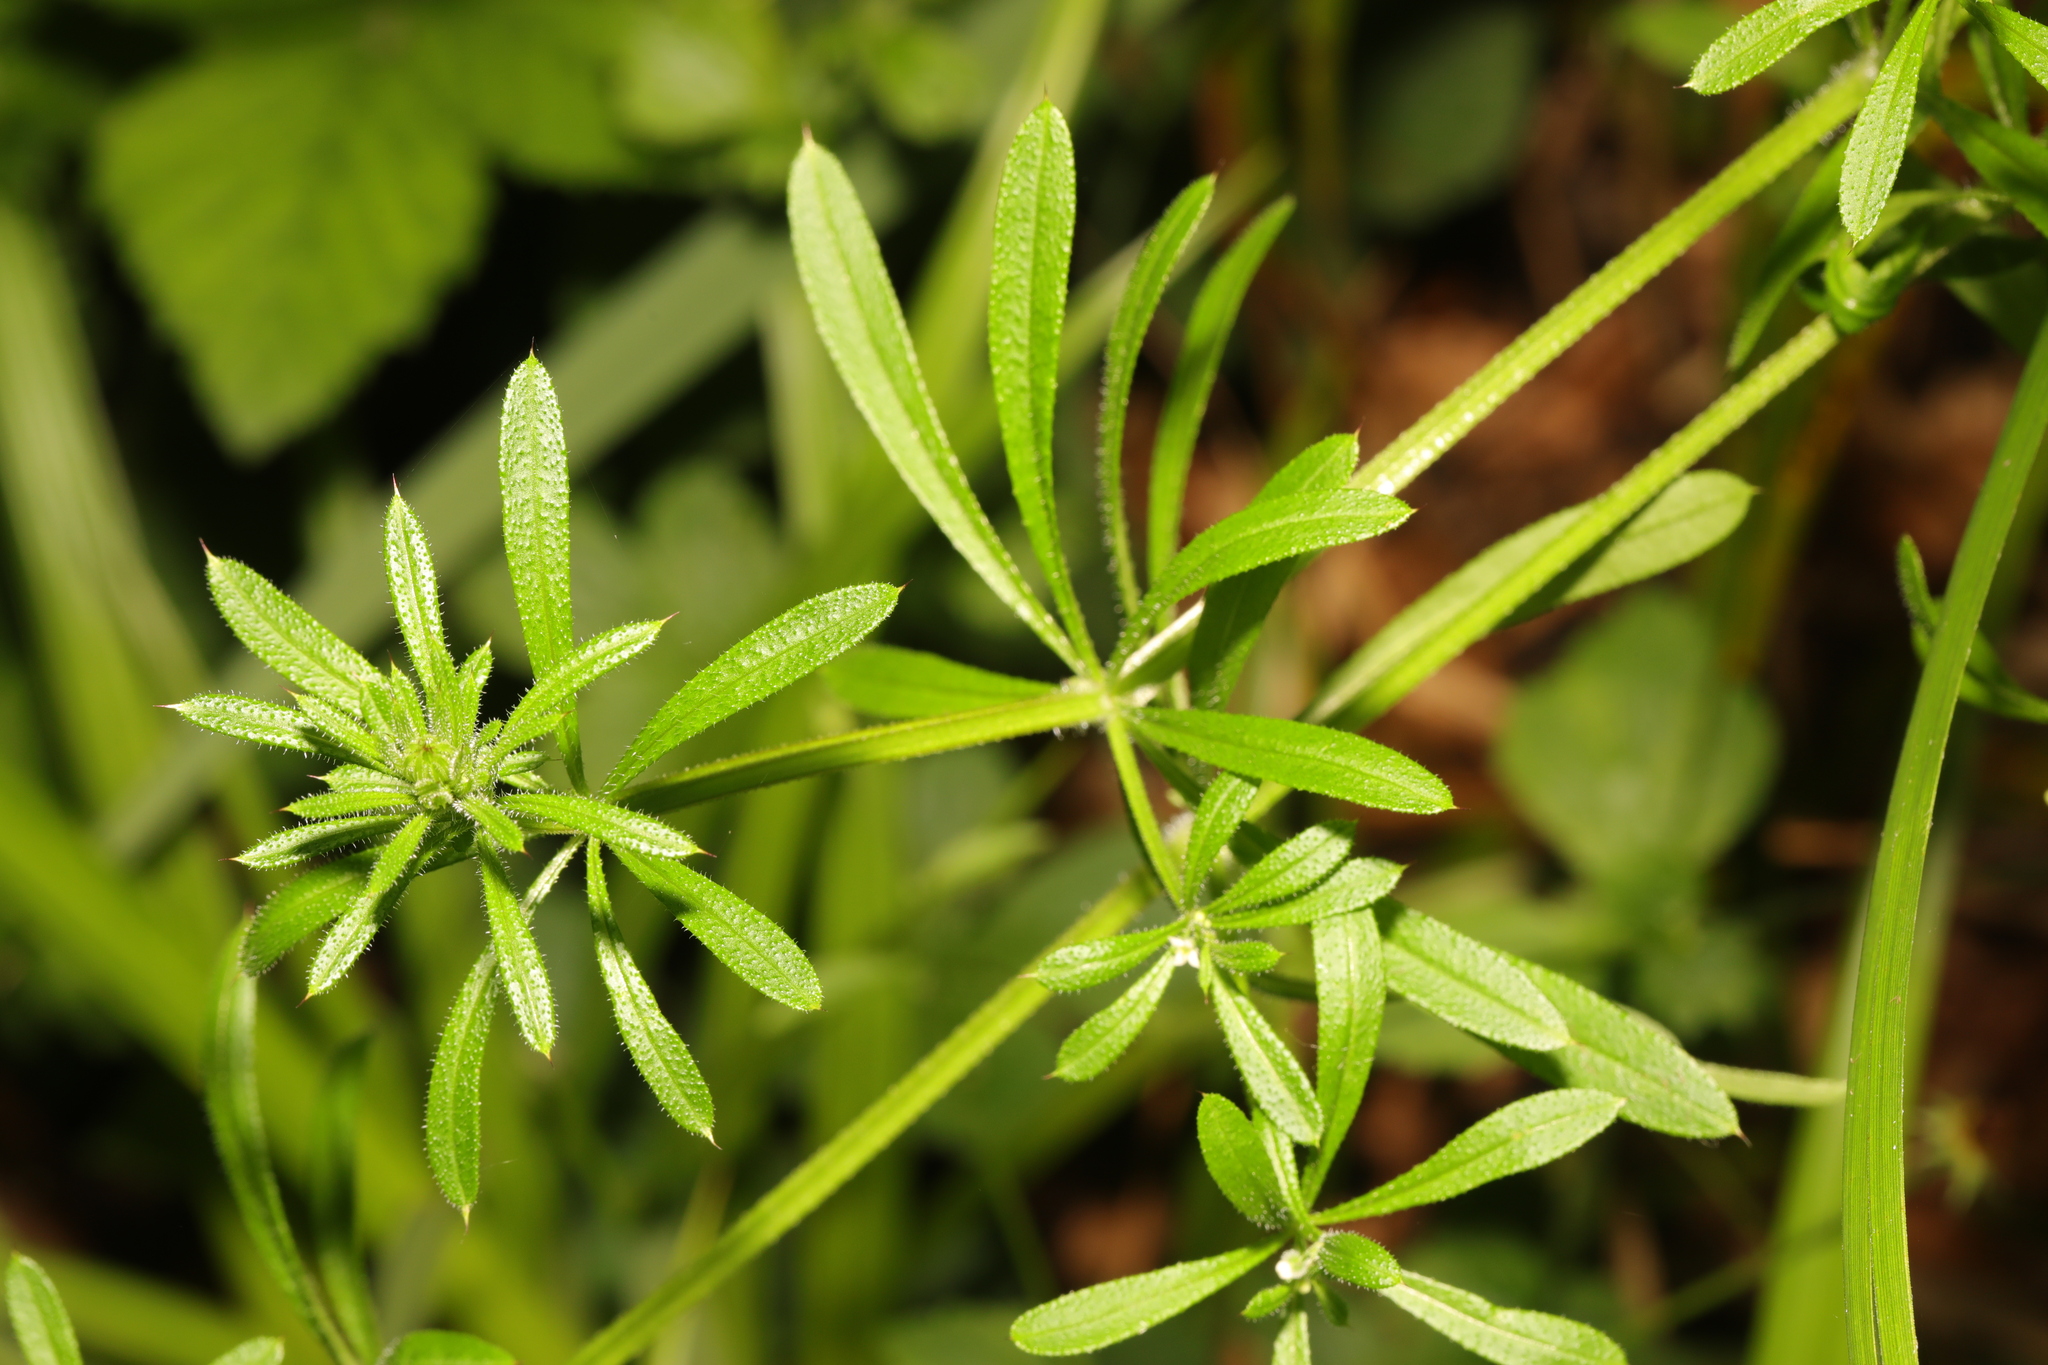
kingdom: Plantae
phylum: Tracheophyta
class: Magnoliopsida
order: Gentianales
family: Rubiaceae
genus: Galium
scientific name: Galium aparine
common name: Cleavers
